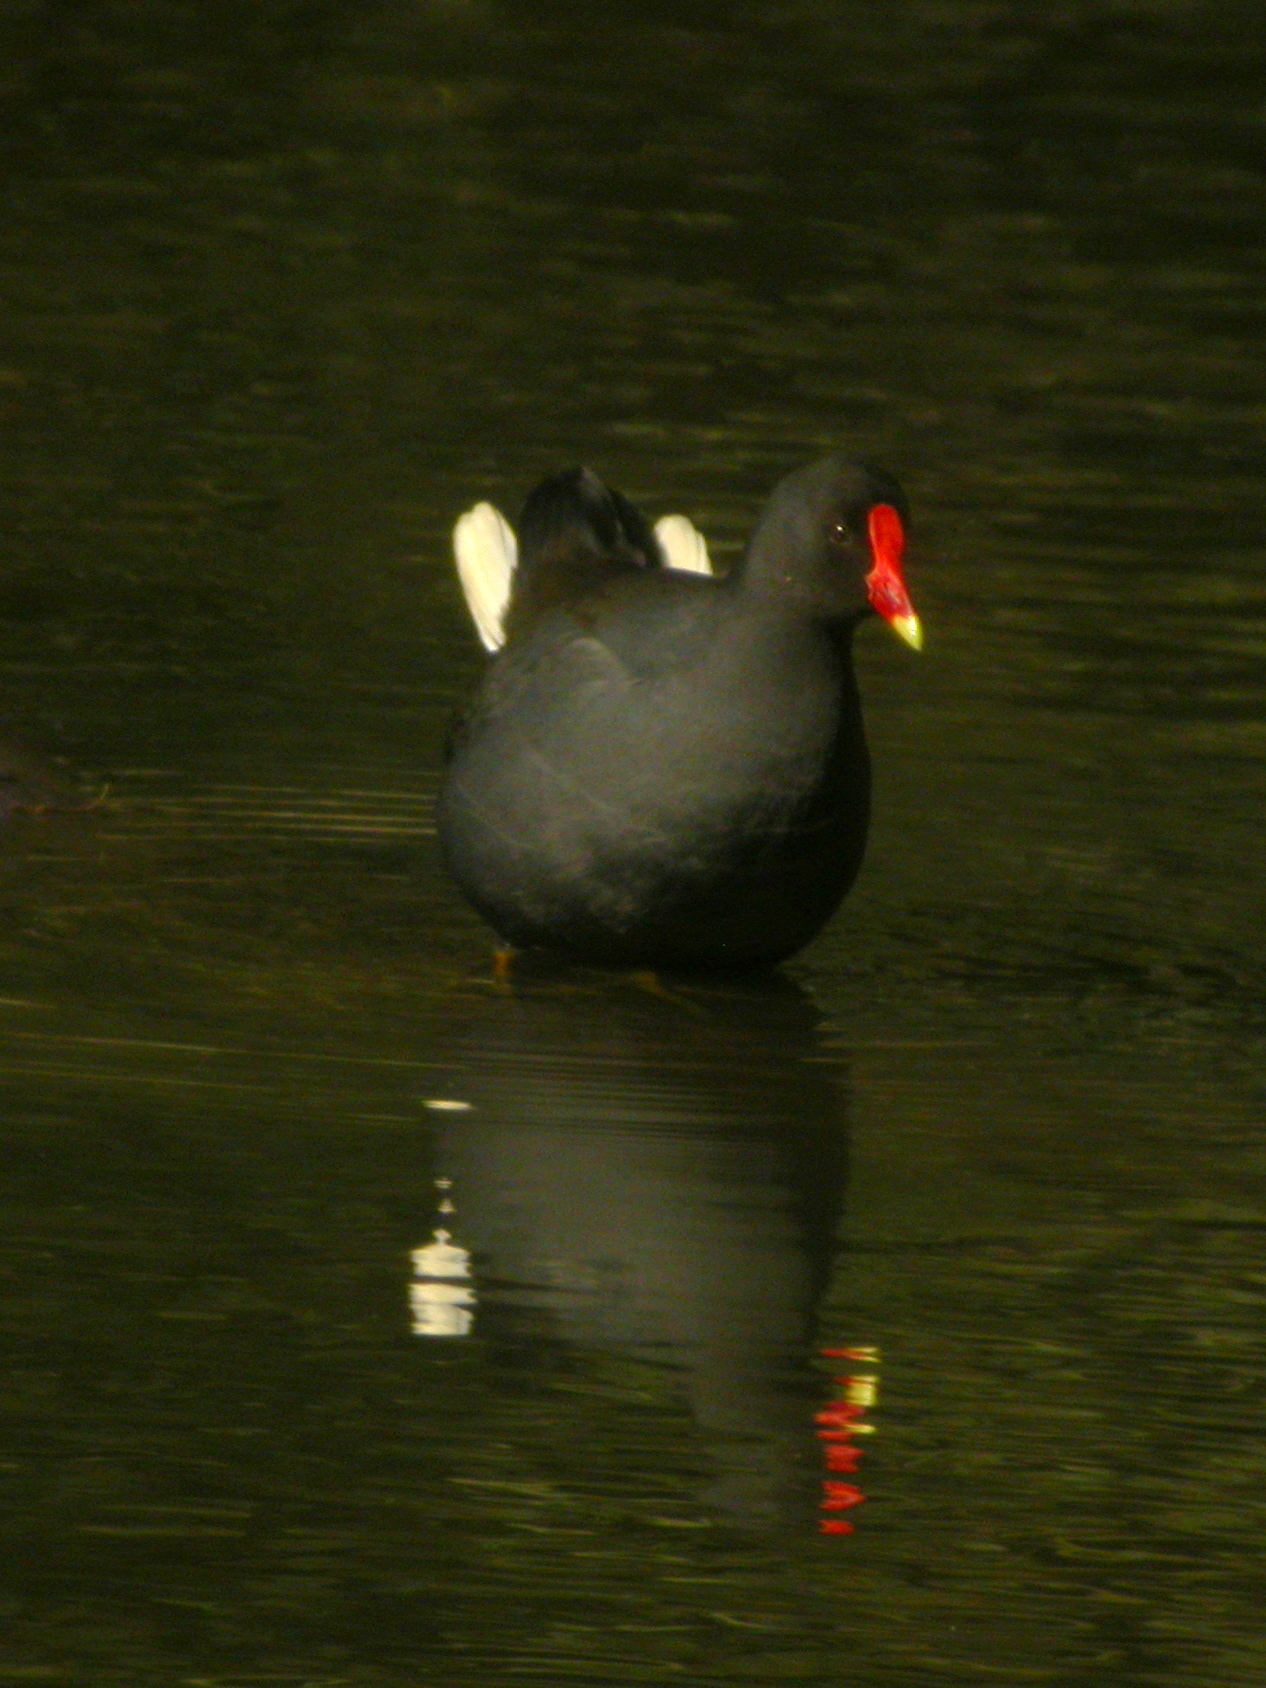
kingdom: Animalia
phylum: Chordata
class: Aves
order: Gruiformes
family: Rallidae
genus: Gallinula
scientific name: Gallinula tenebrosa
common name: Dusky moorhen
